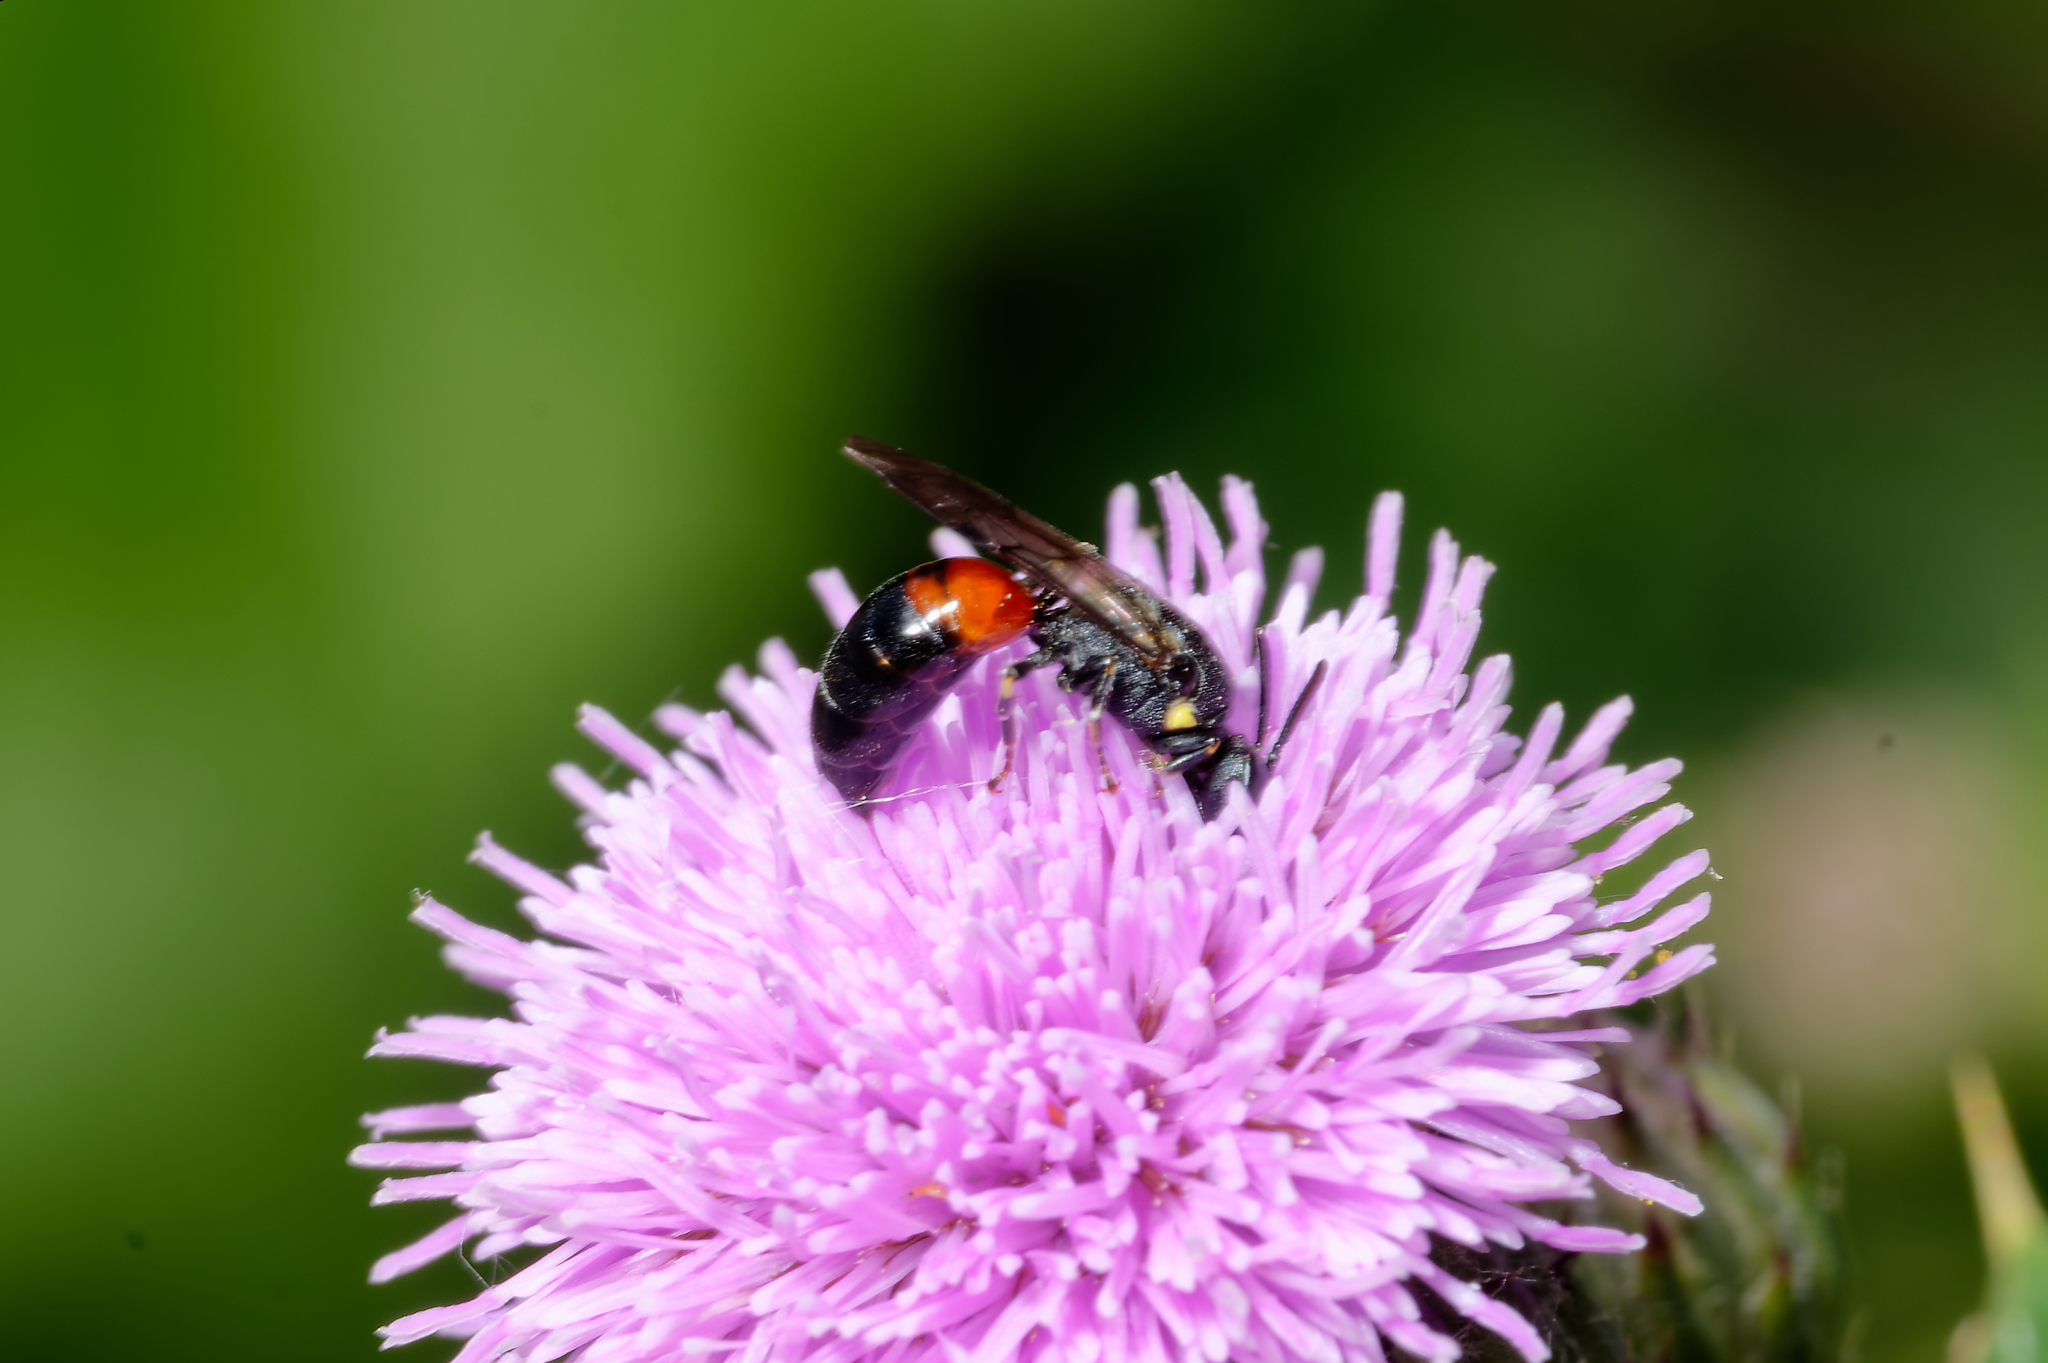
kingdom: Animalia
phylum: Arthropoda
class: Insecta
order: Hymenoptera
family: Colletidae
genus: Hylaeus
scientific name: Hylaeus nelumbonis
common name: Nelumbo masked bee
